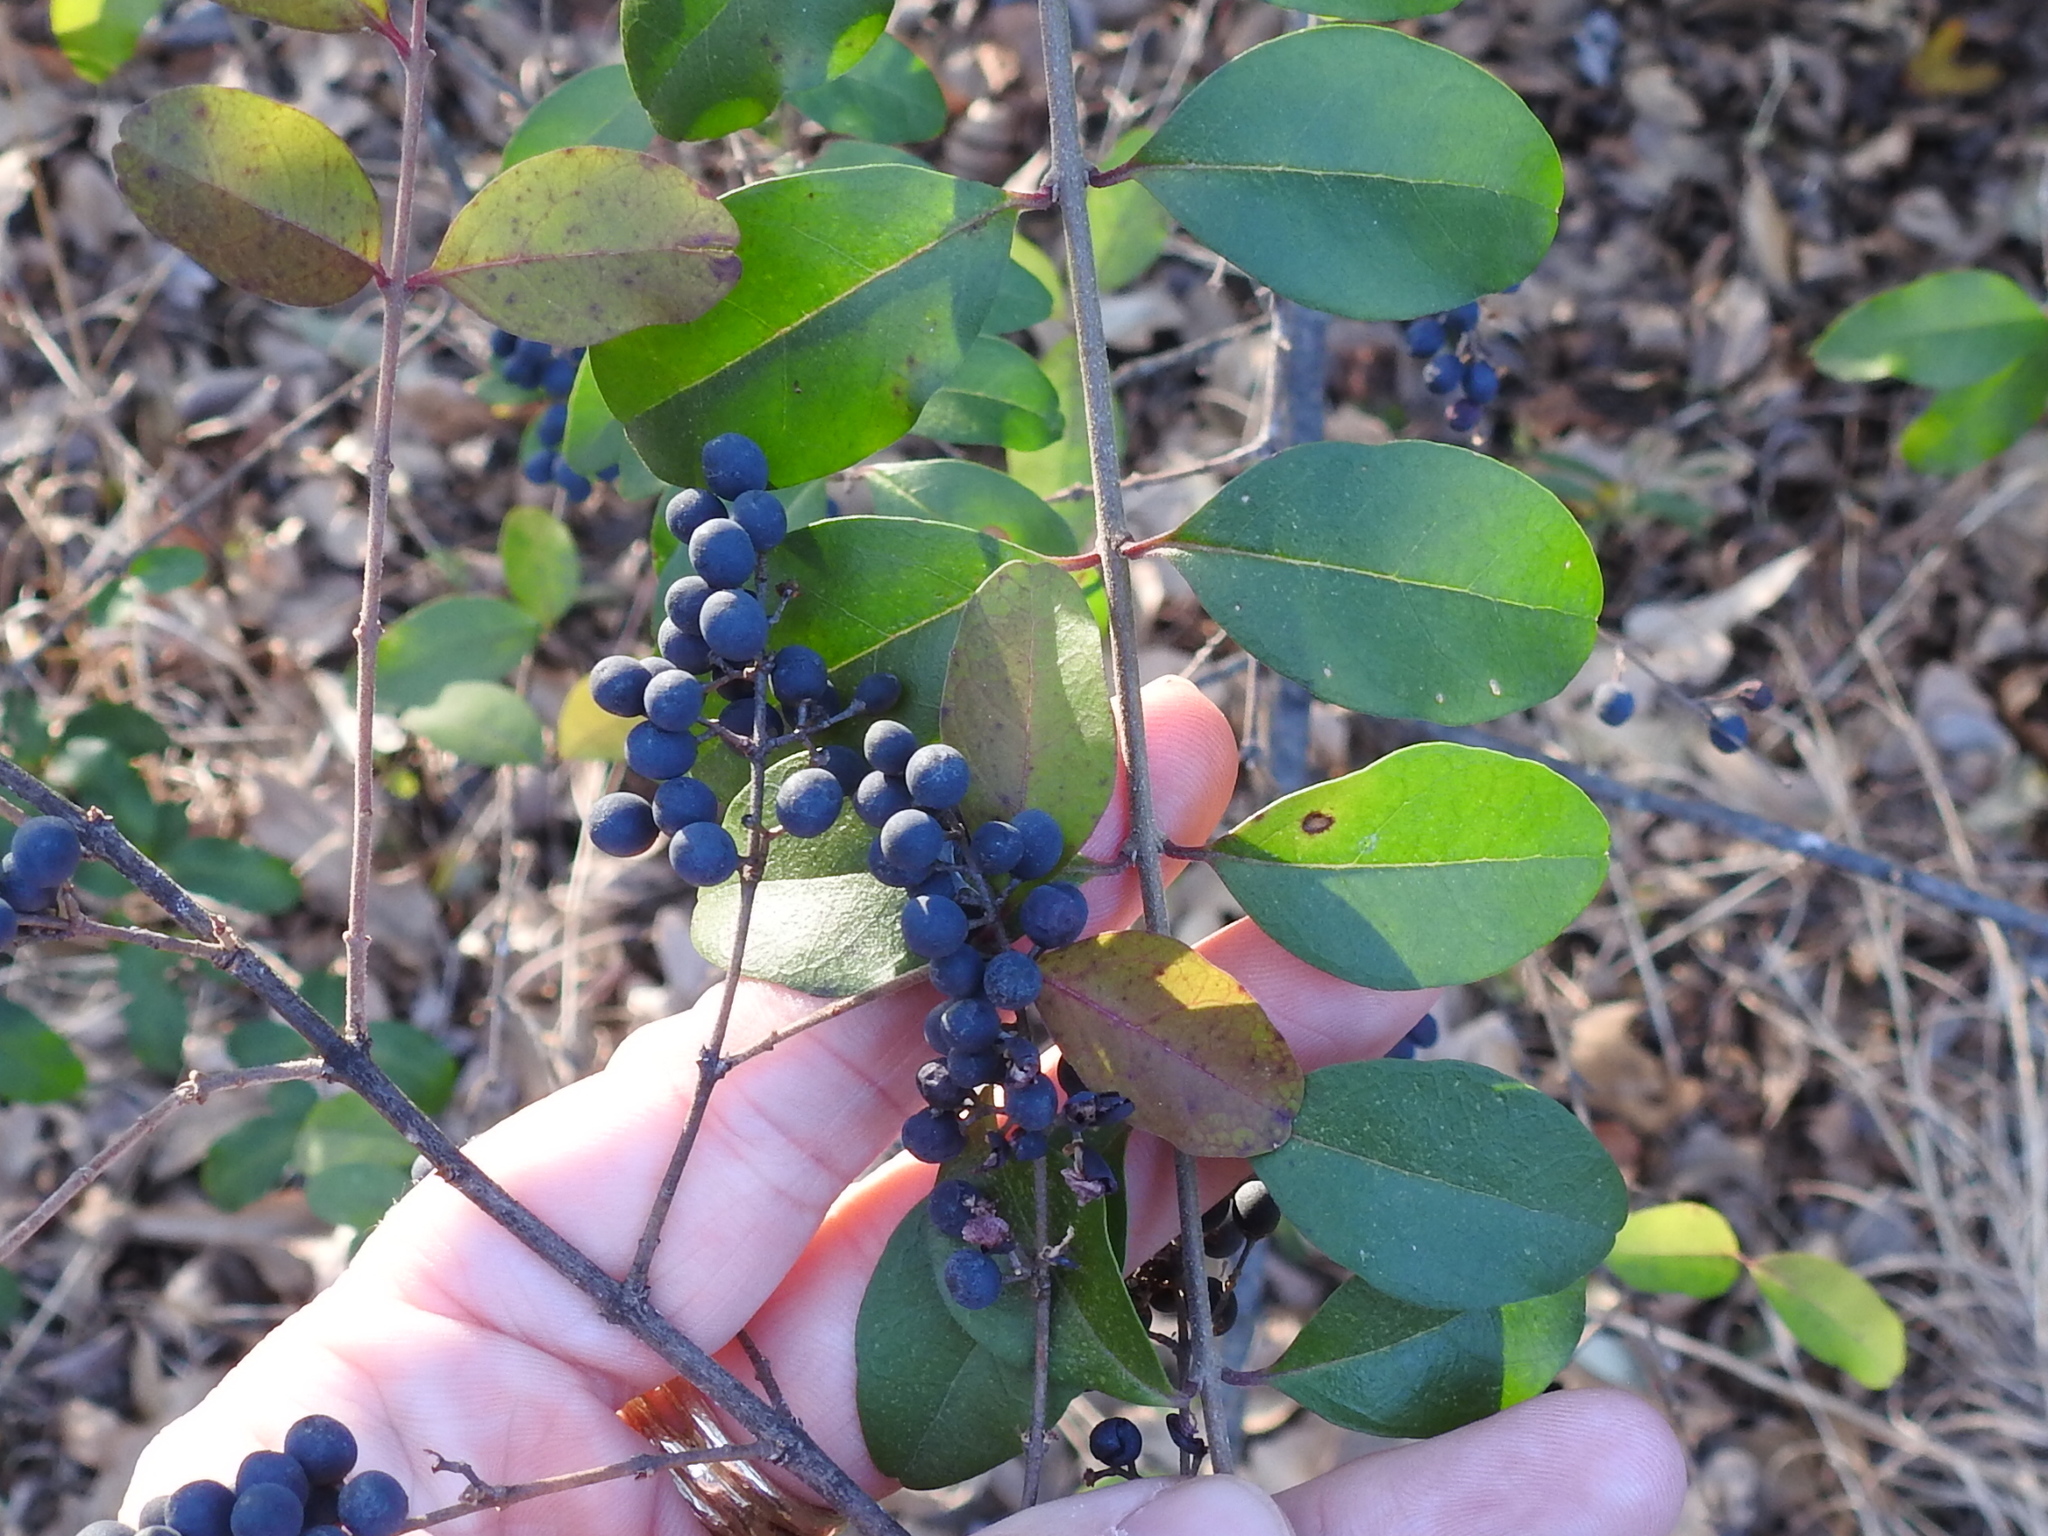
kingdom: Plantae
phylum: Tracheophyta
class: Magnoliopsida
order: Lamiales
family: Oleaceae
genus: Ligustrum
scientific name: Ligustrum sinense
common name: Chinese privet
